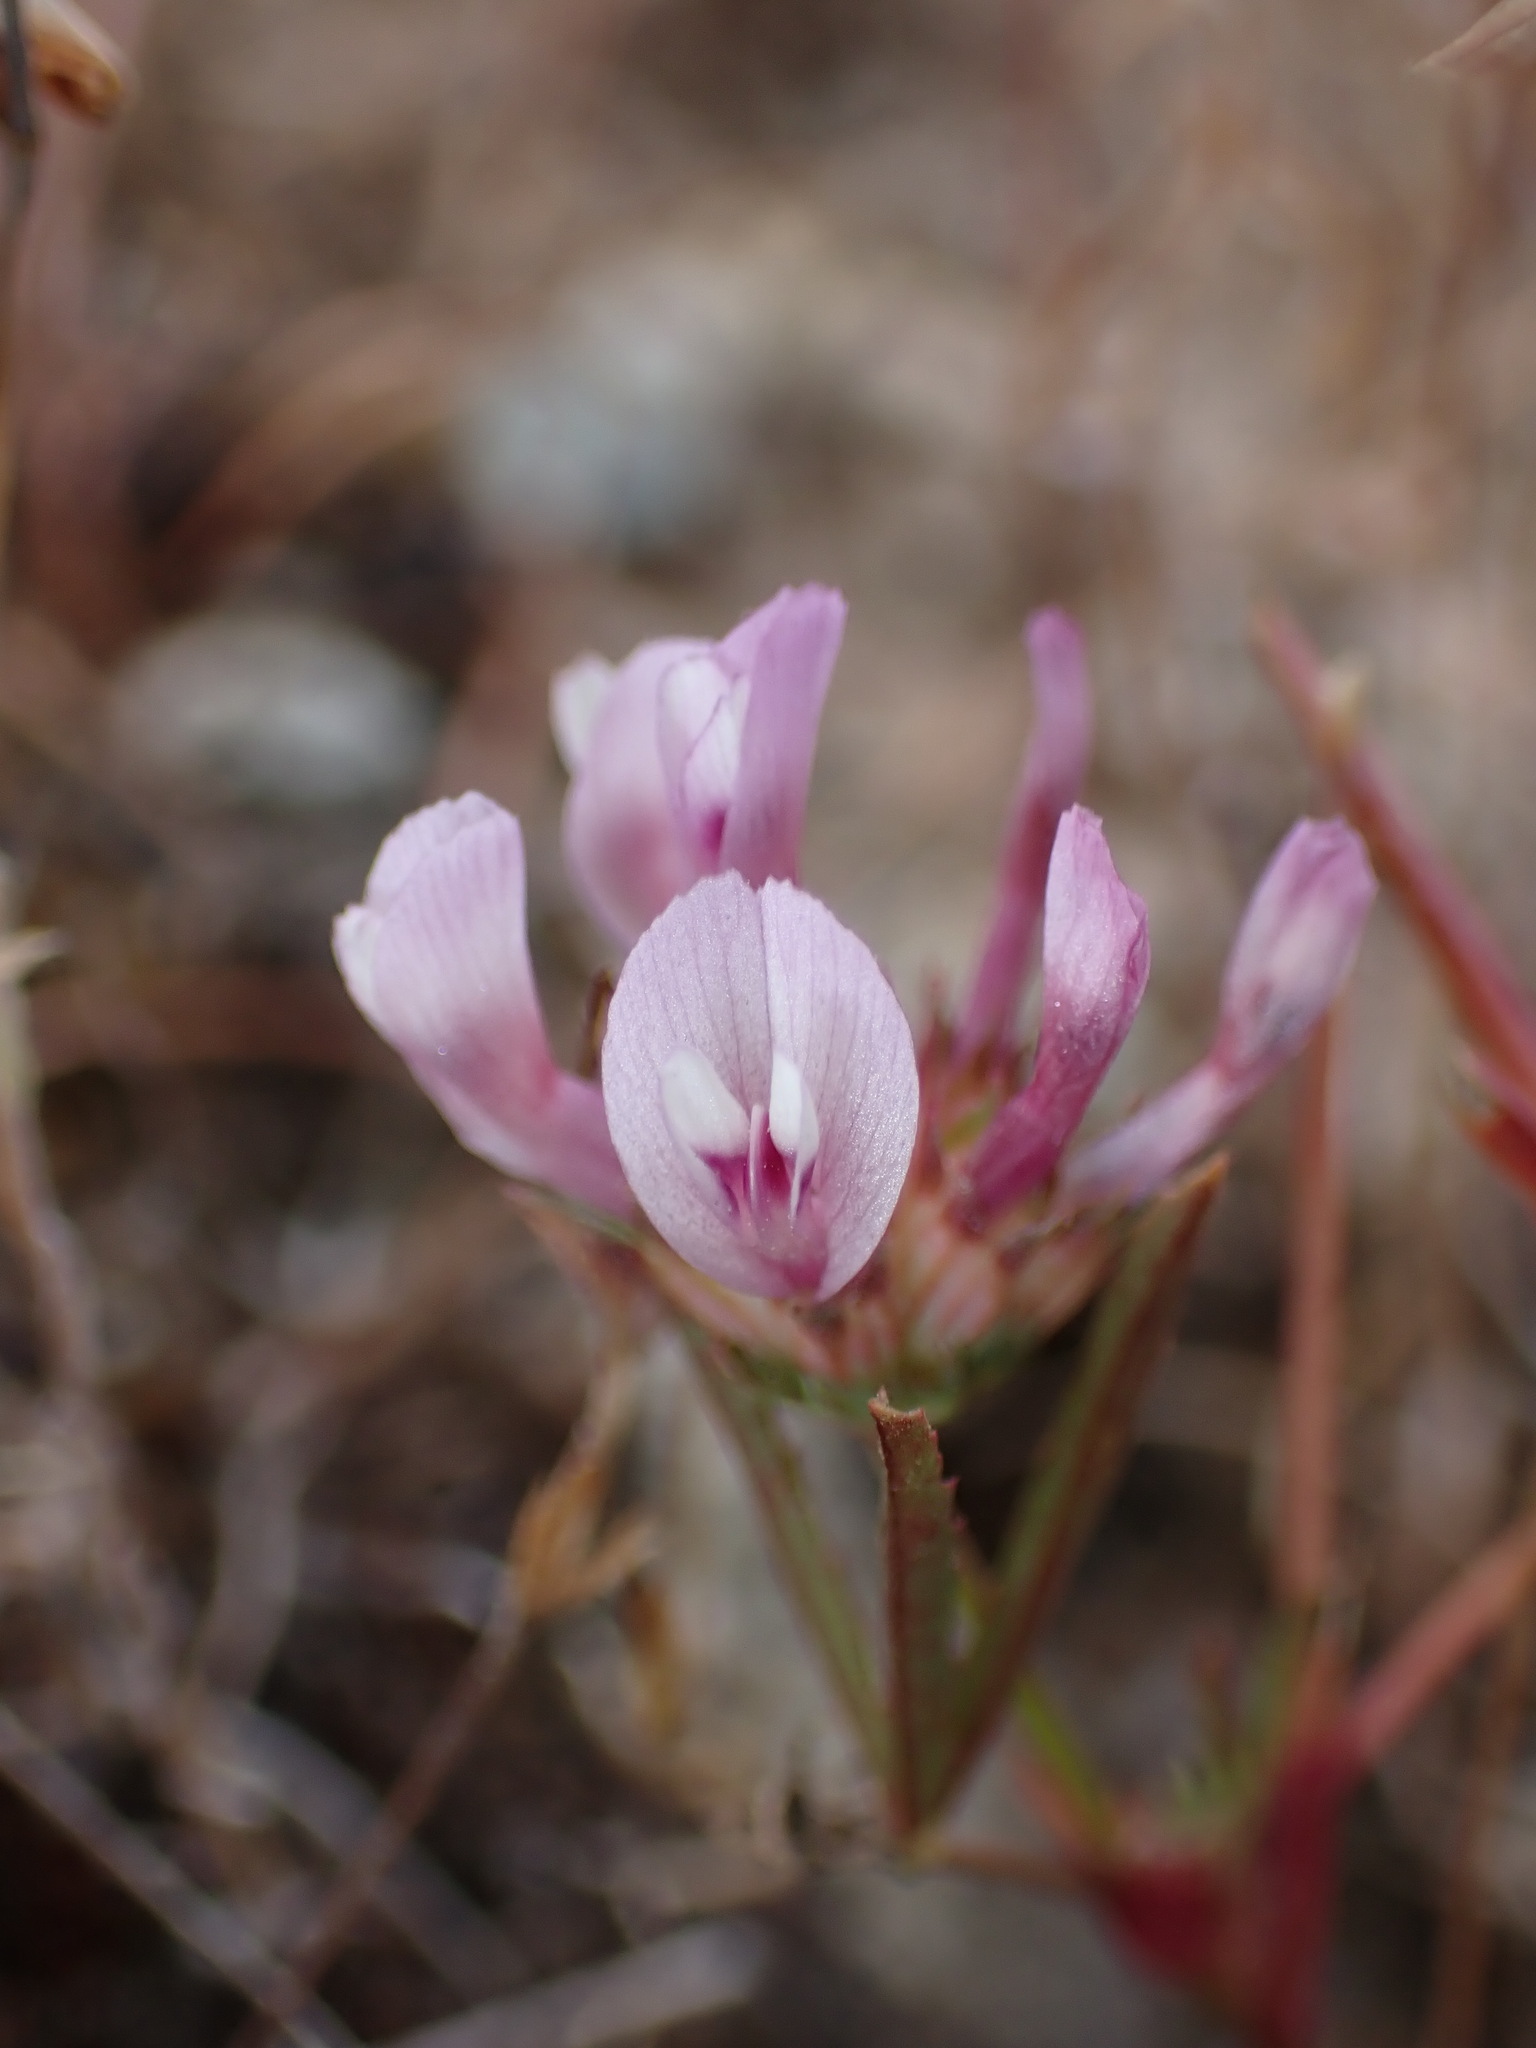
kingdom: Plantae
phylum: Tracheophyta
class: Magnoliopsida
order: Fabales
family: Fabaceae
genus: Trifolium
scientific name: Trifolium willdenovii
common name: Tomcat clover
